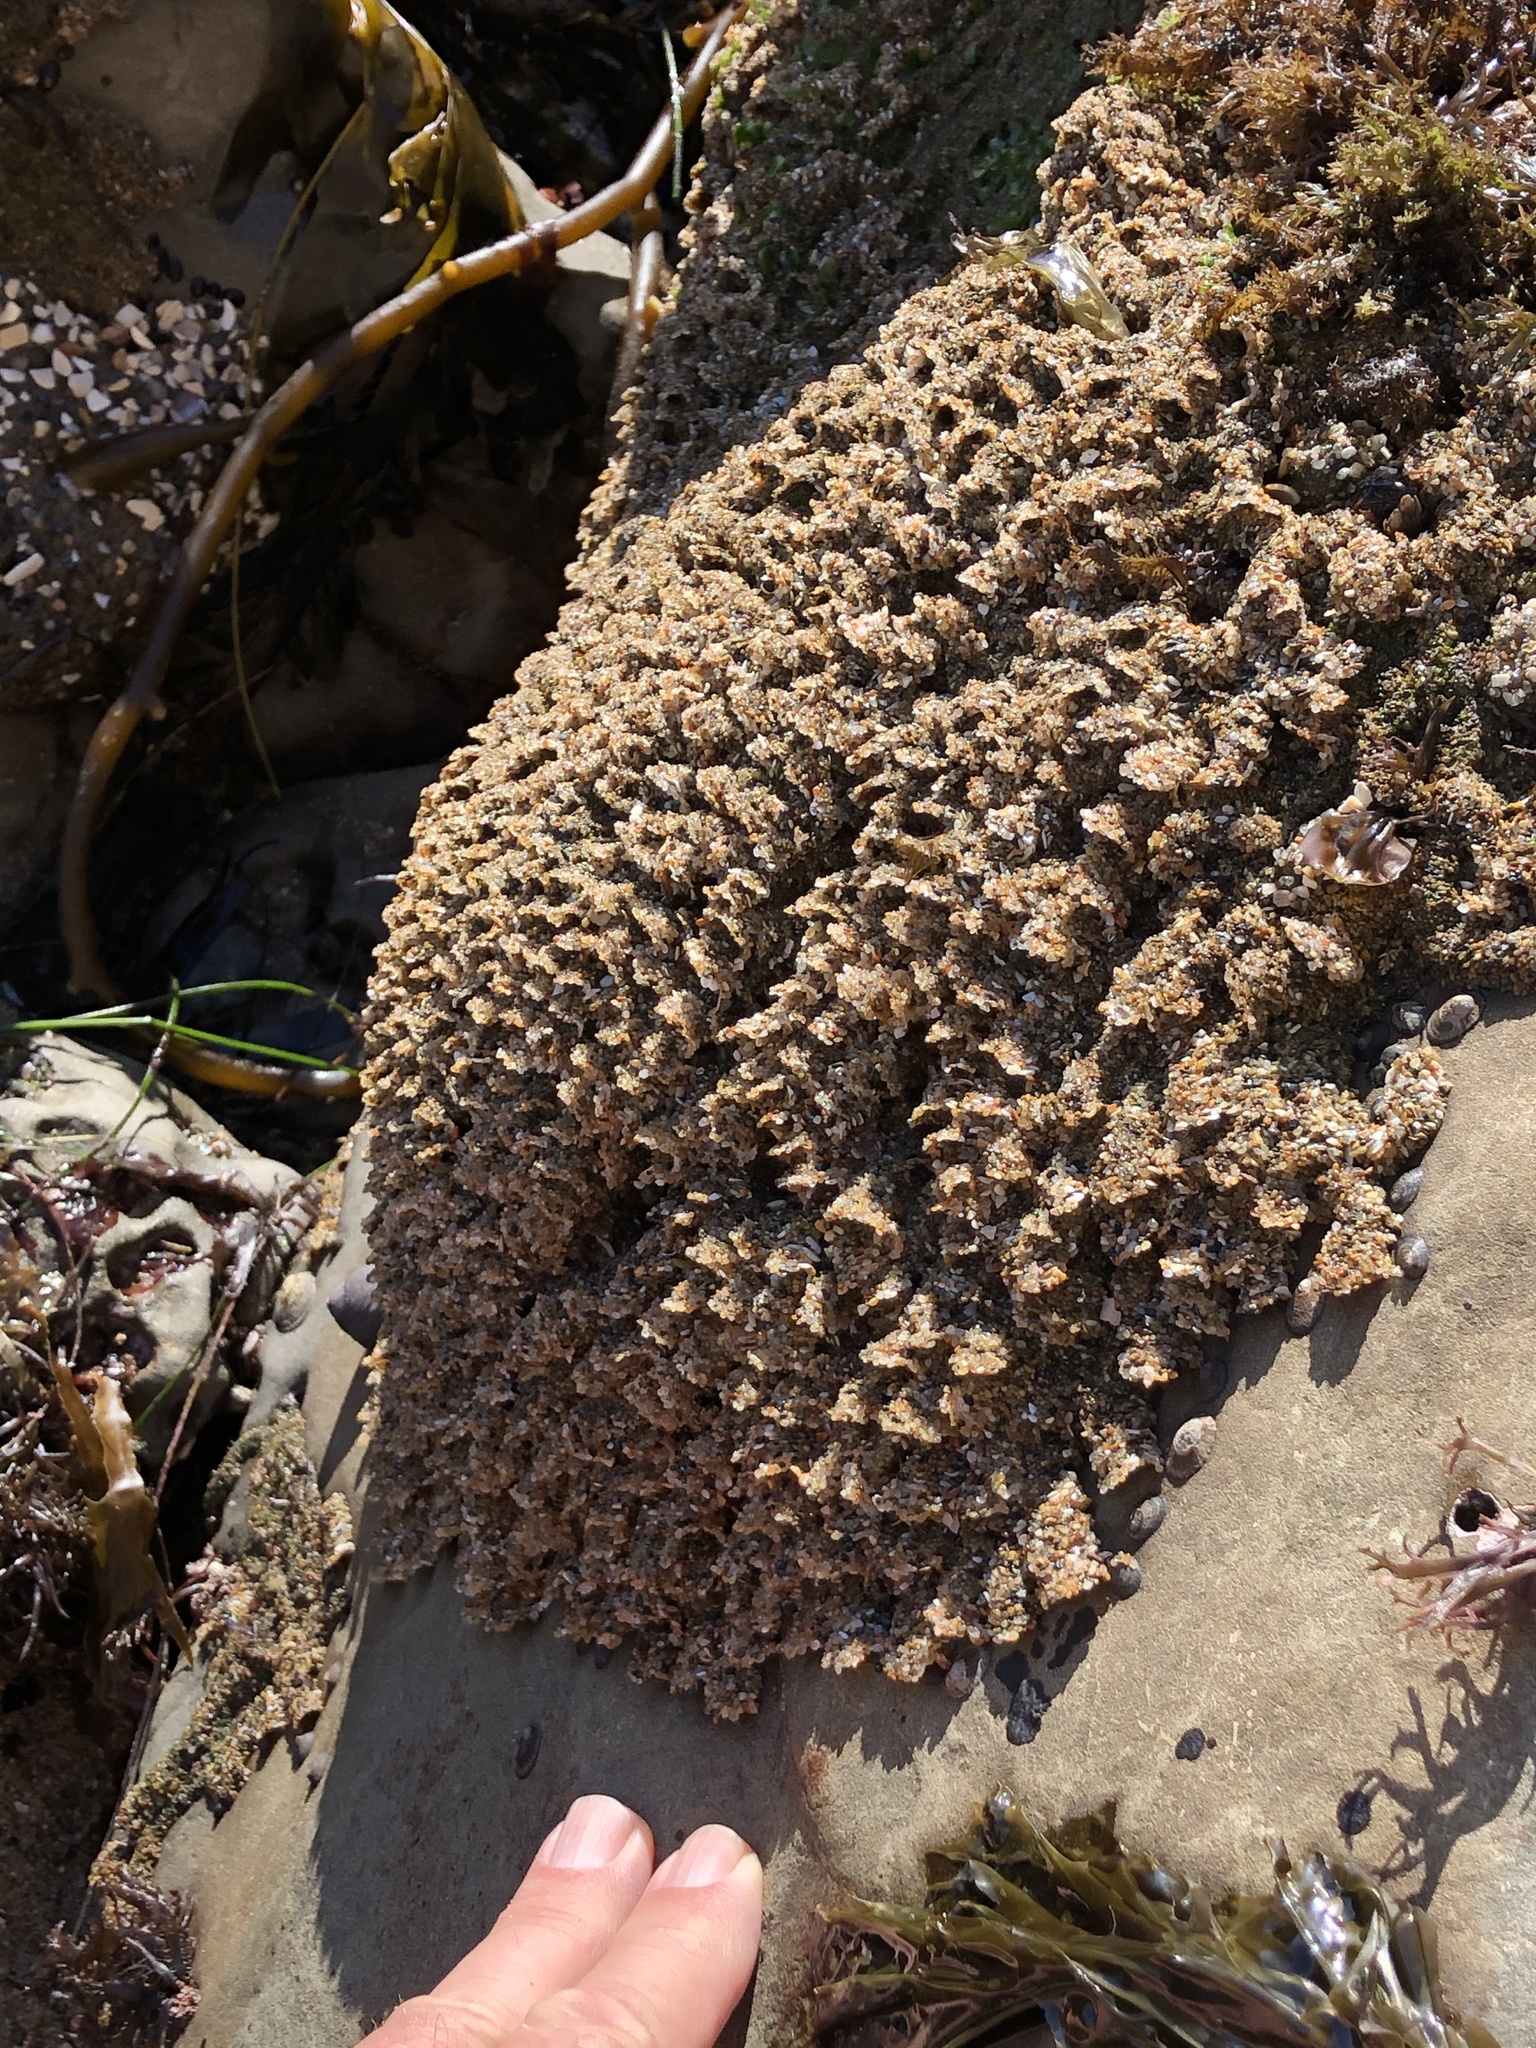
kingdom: Animalia
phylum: Annelida
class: Polychaeta
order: Sabellida
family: Sabellariidae
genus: Phragmatopoma
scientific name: Phragmatopoma californica
